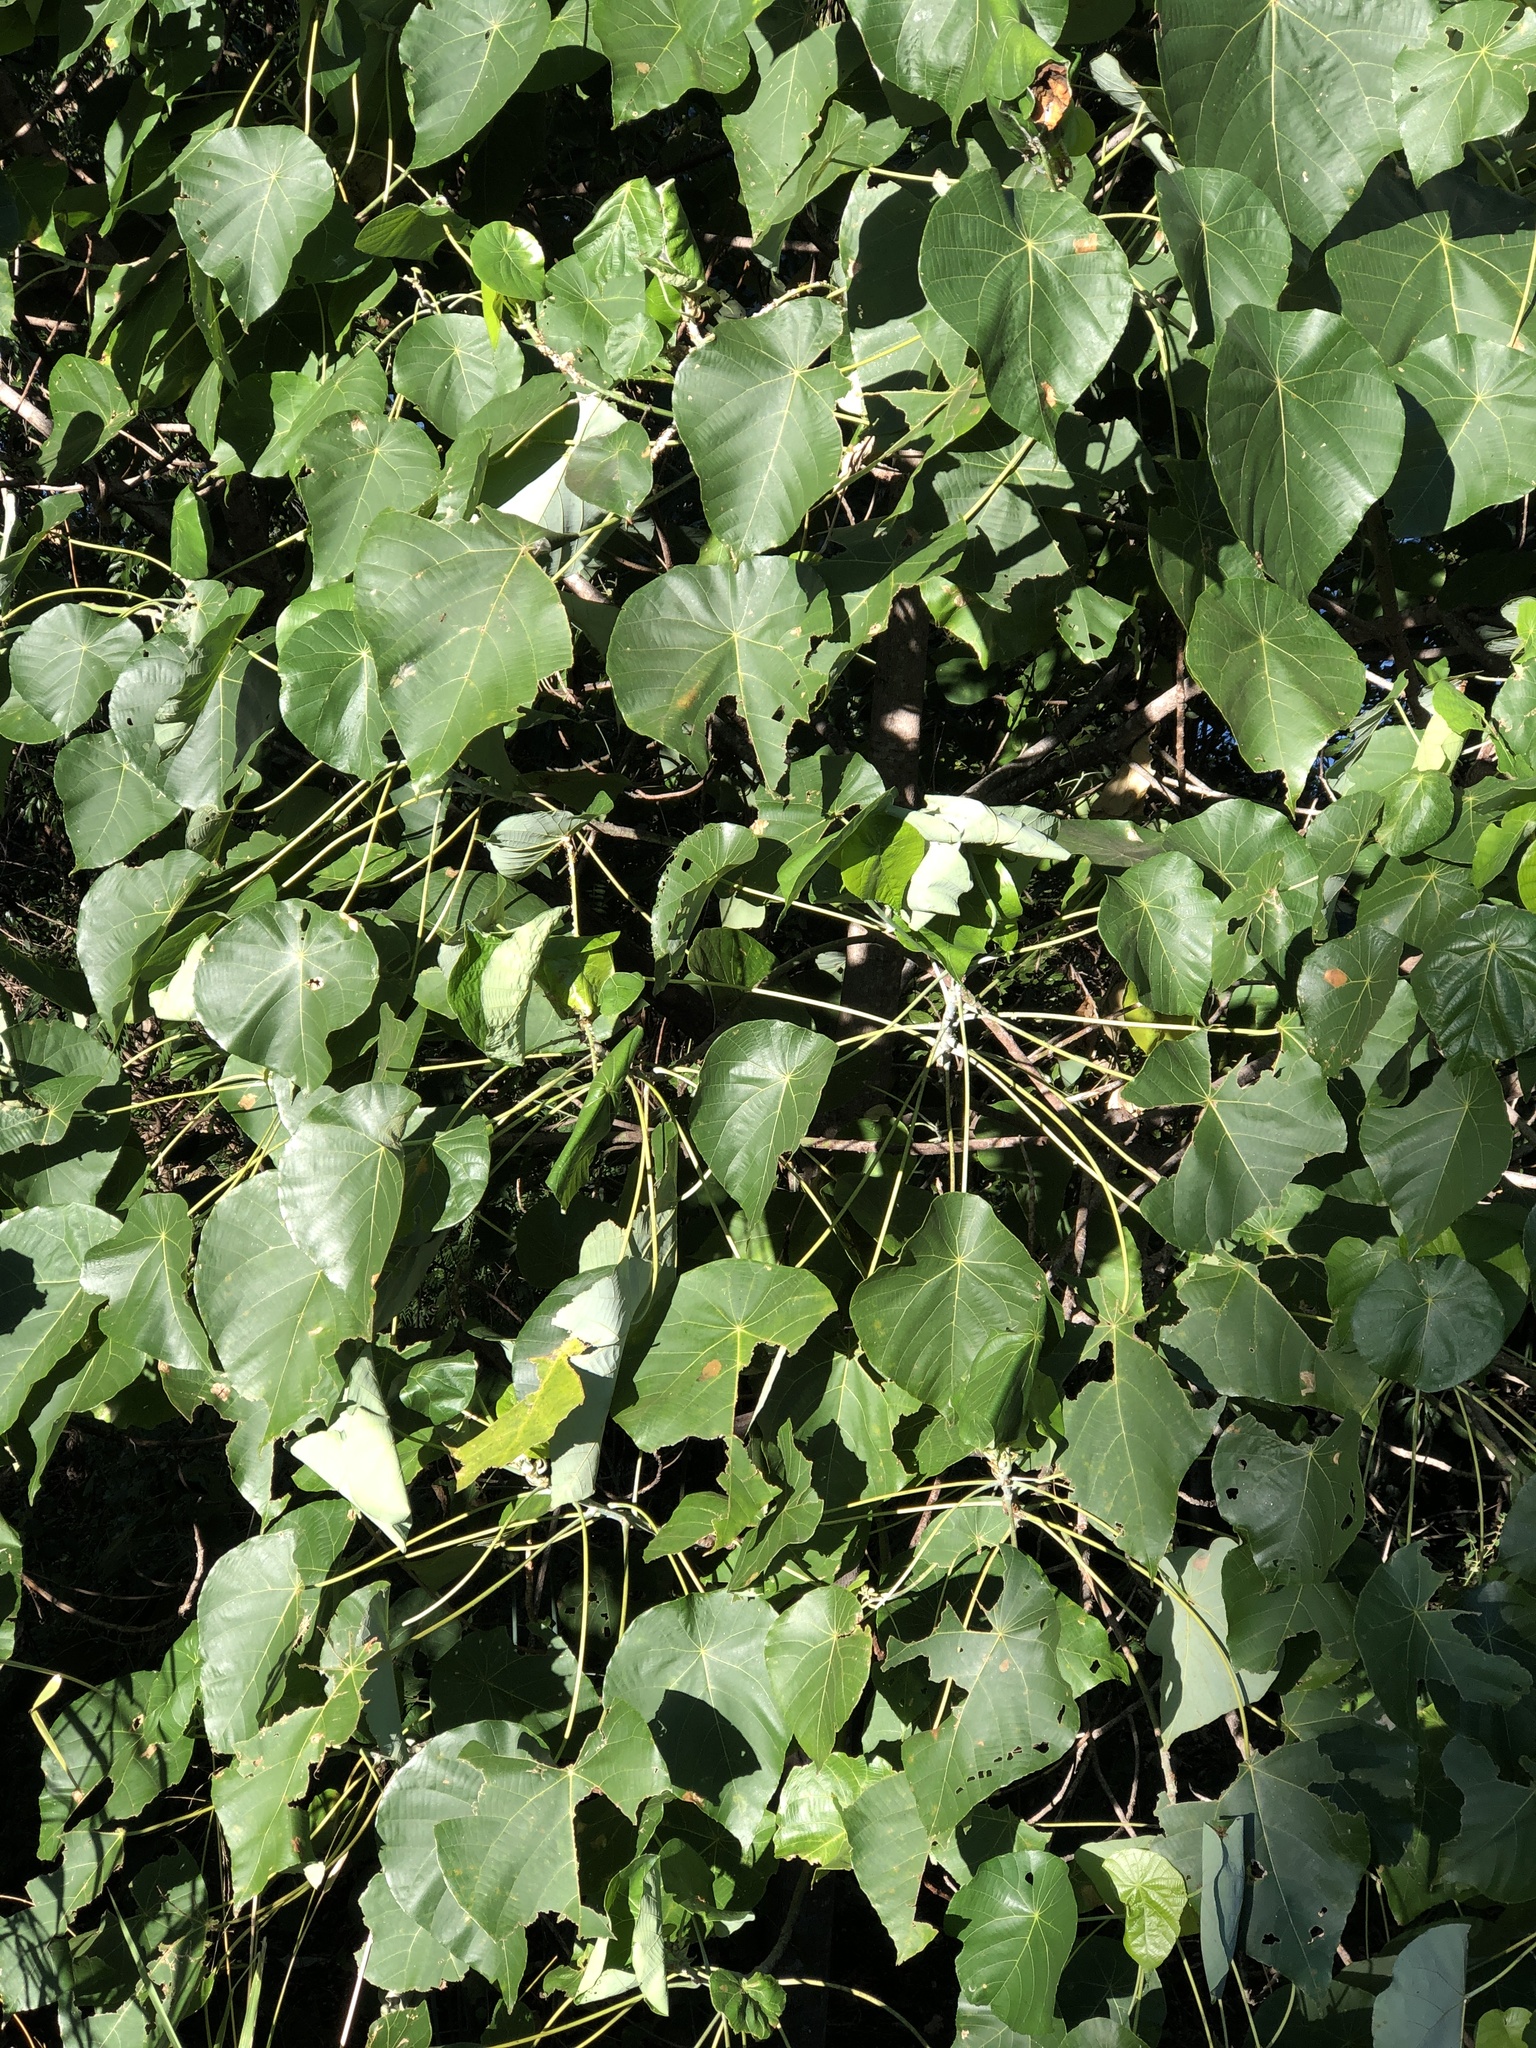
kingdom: Plantae
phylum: Tracheophyta
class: Magnoliopsida
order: Malpighiales
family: Euphorbiaceae
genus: Macaranga
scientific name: Macaranga tanarius
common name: Parasol leaf tree
